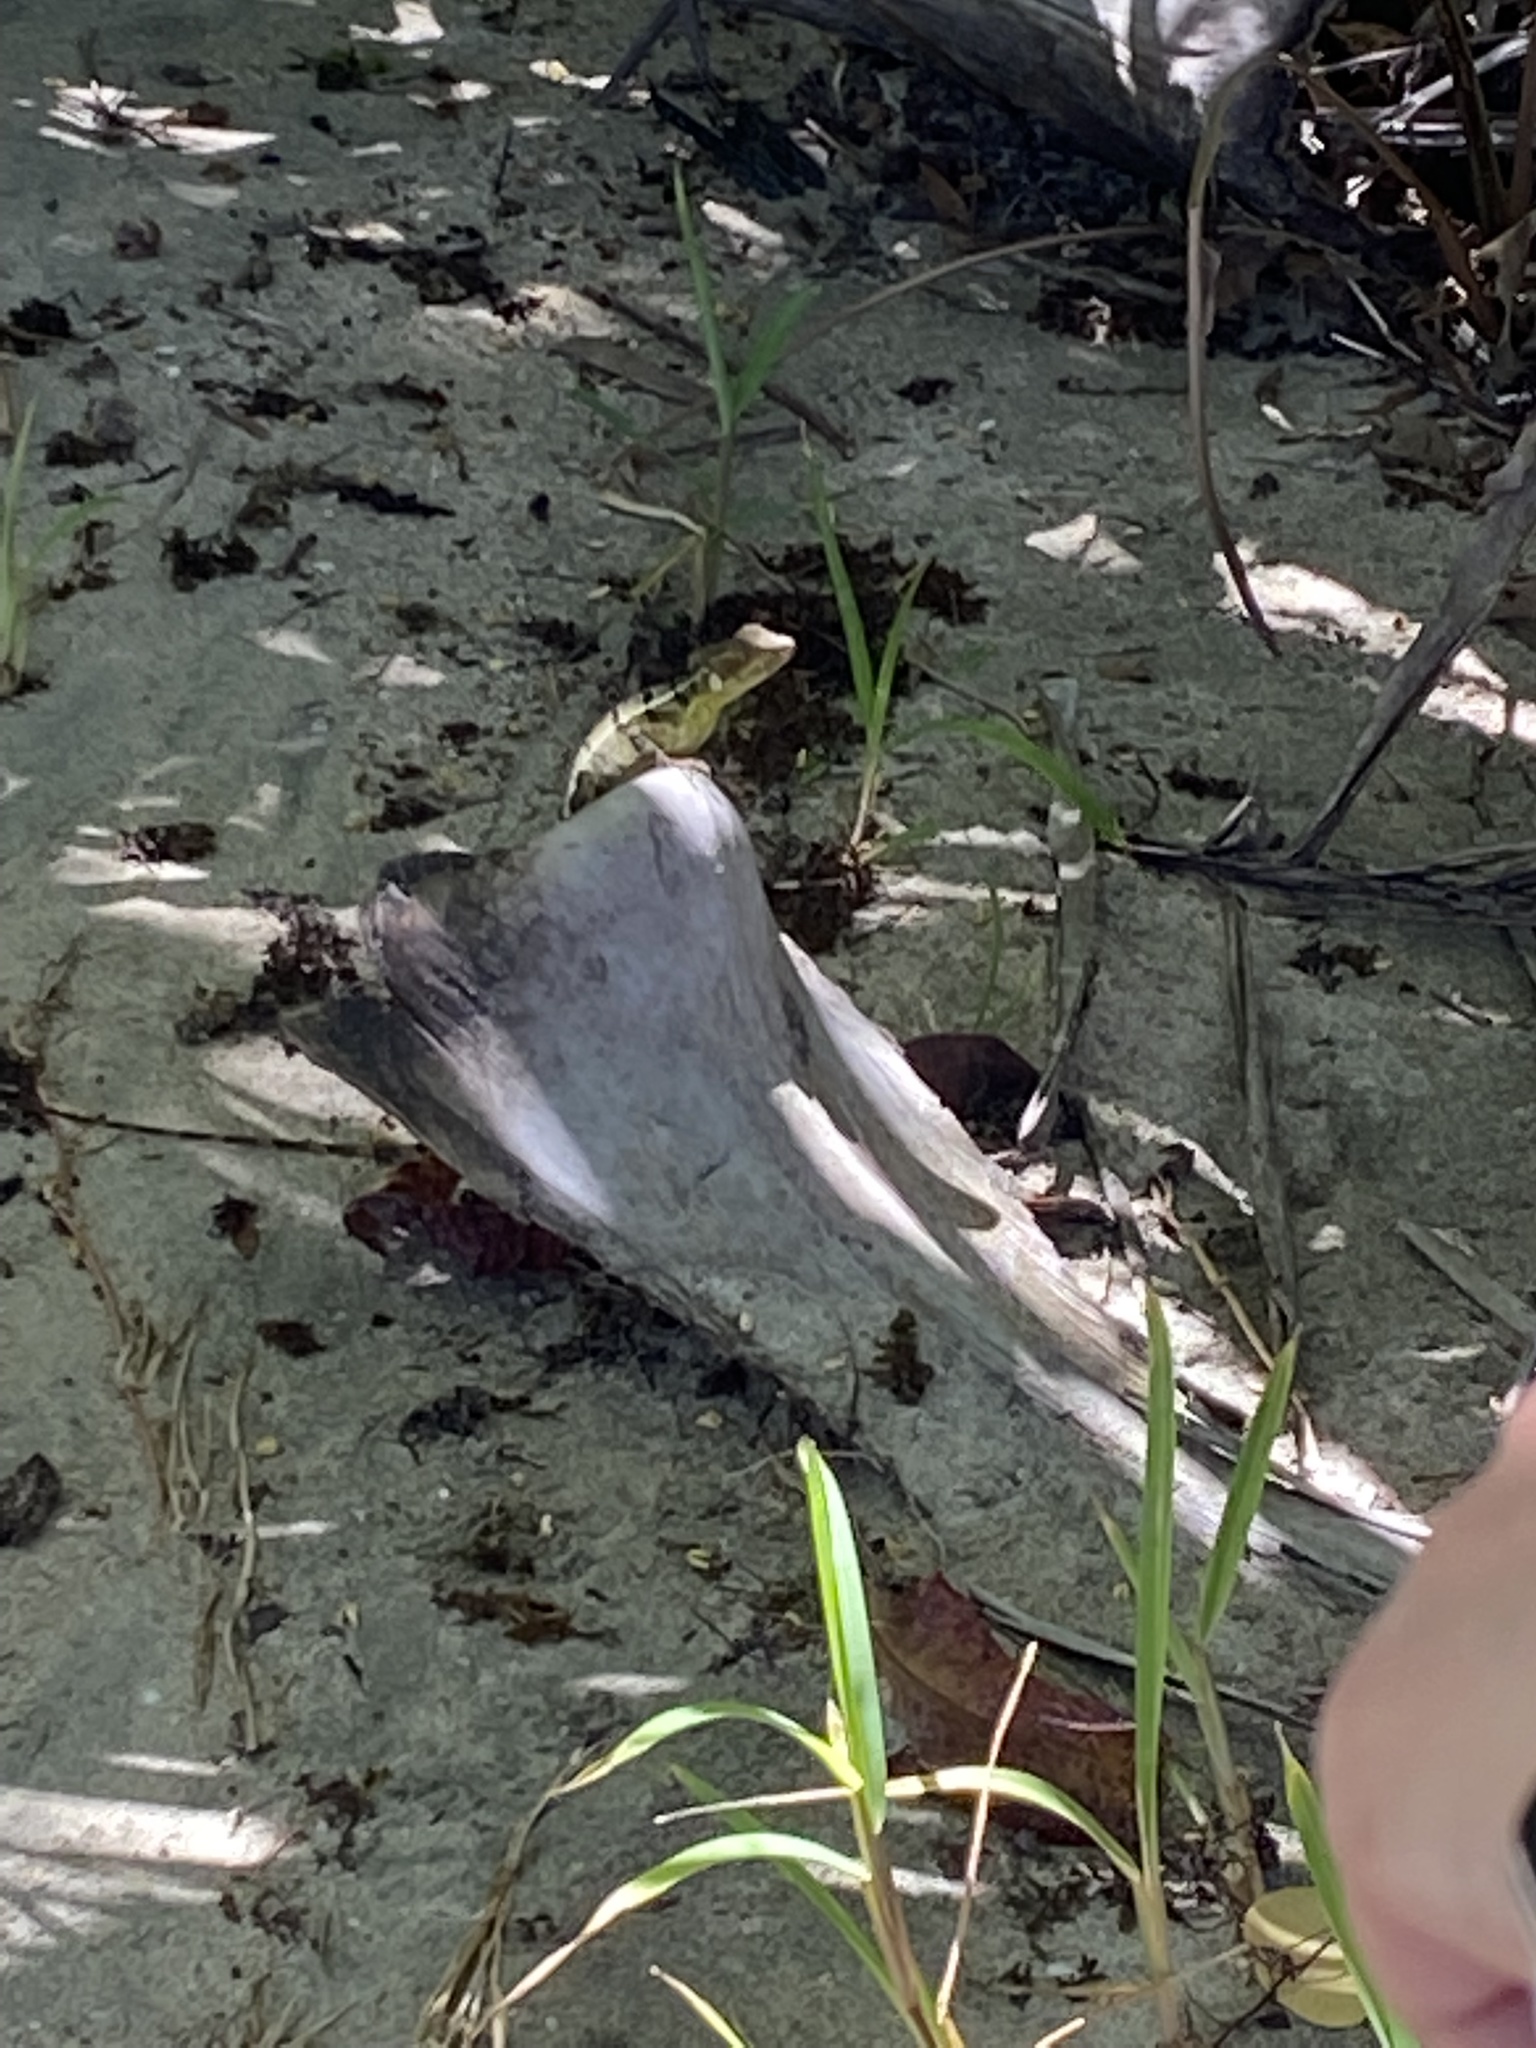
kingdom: Animalia
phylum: Chordata
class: Squamata
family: Corytophanidae
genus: Basiliscus
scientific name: Basiliscus plumifrons
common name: Green basilisk
